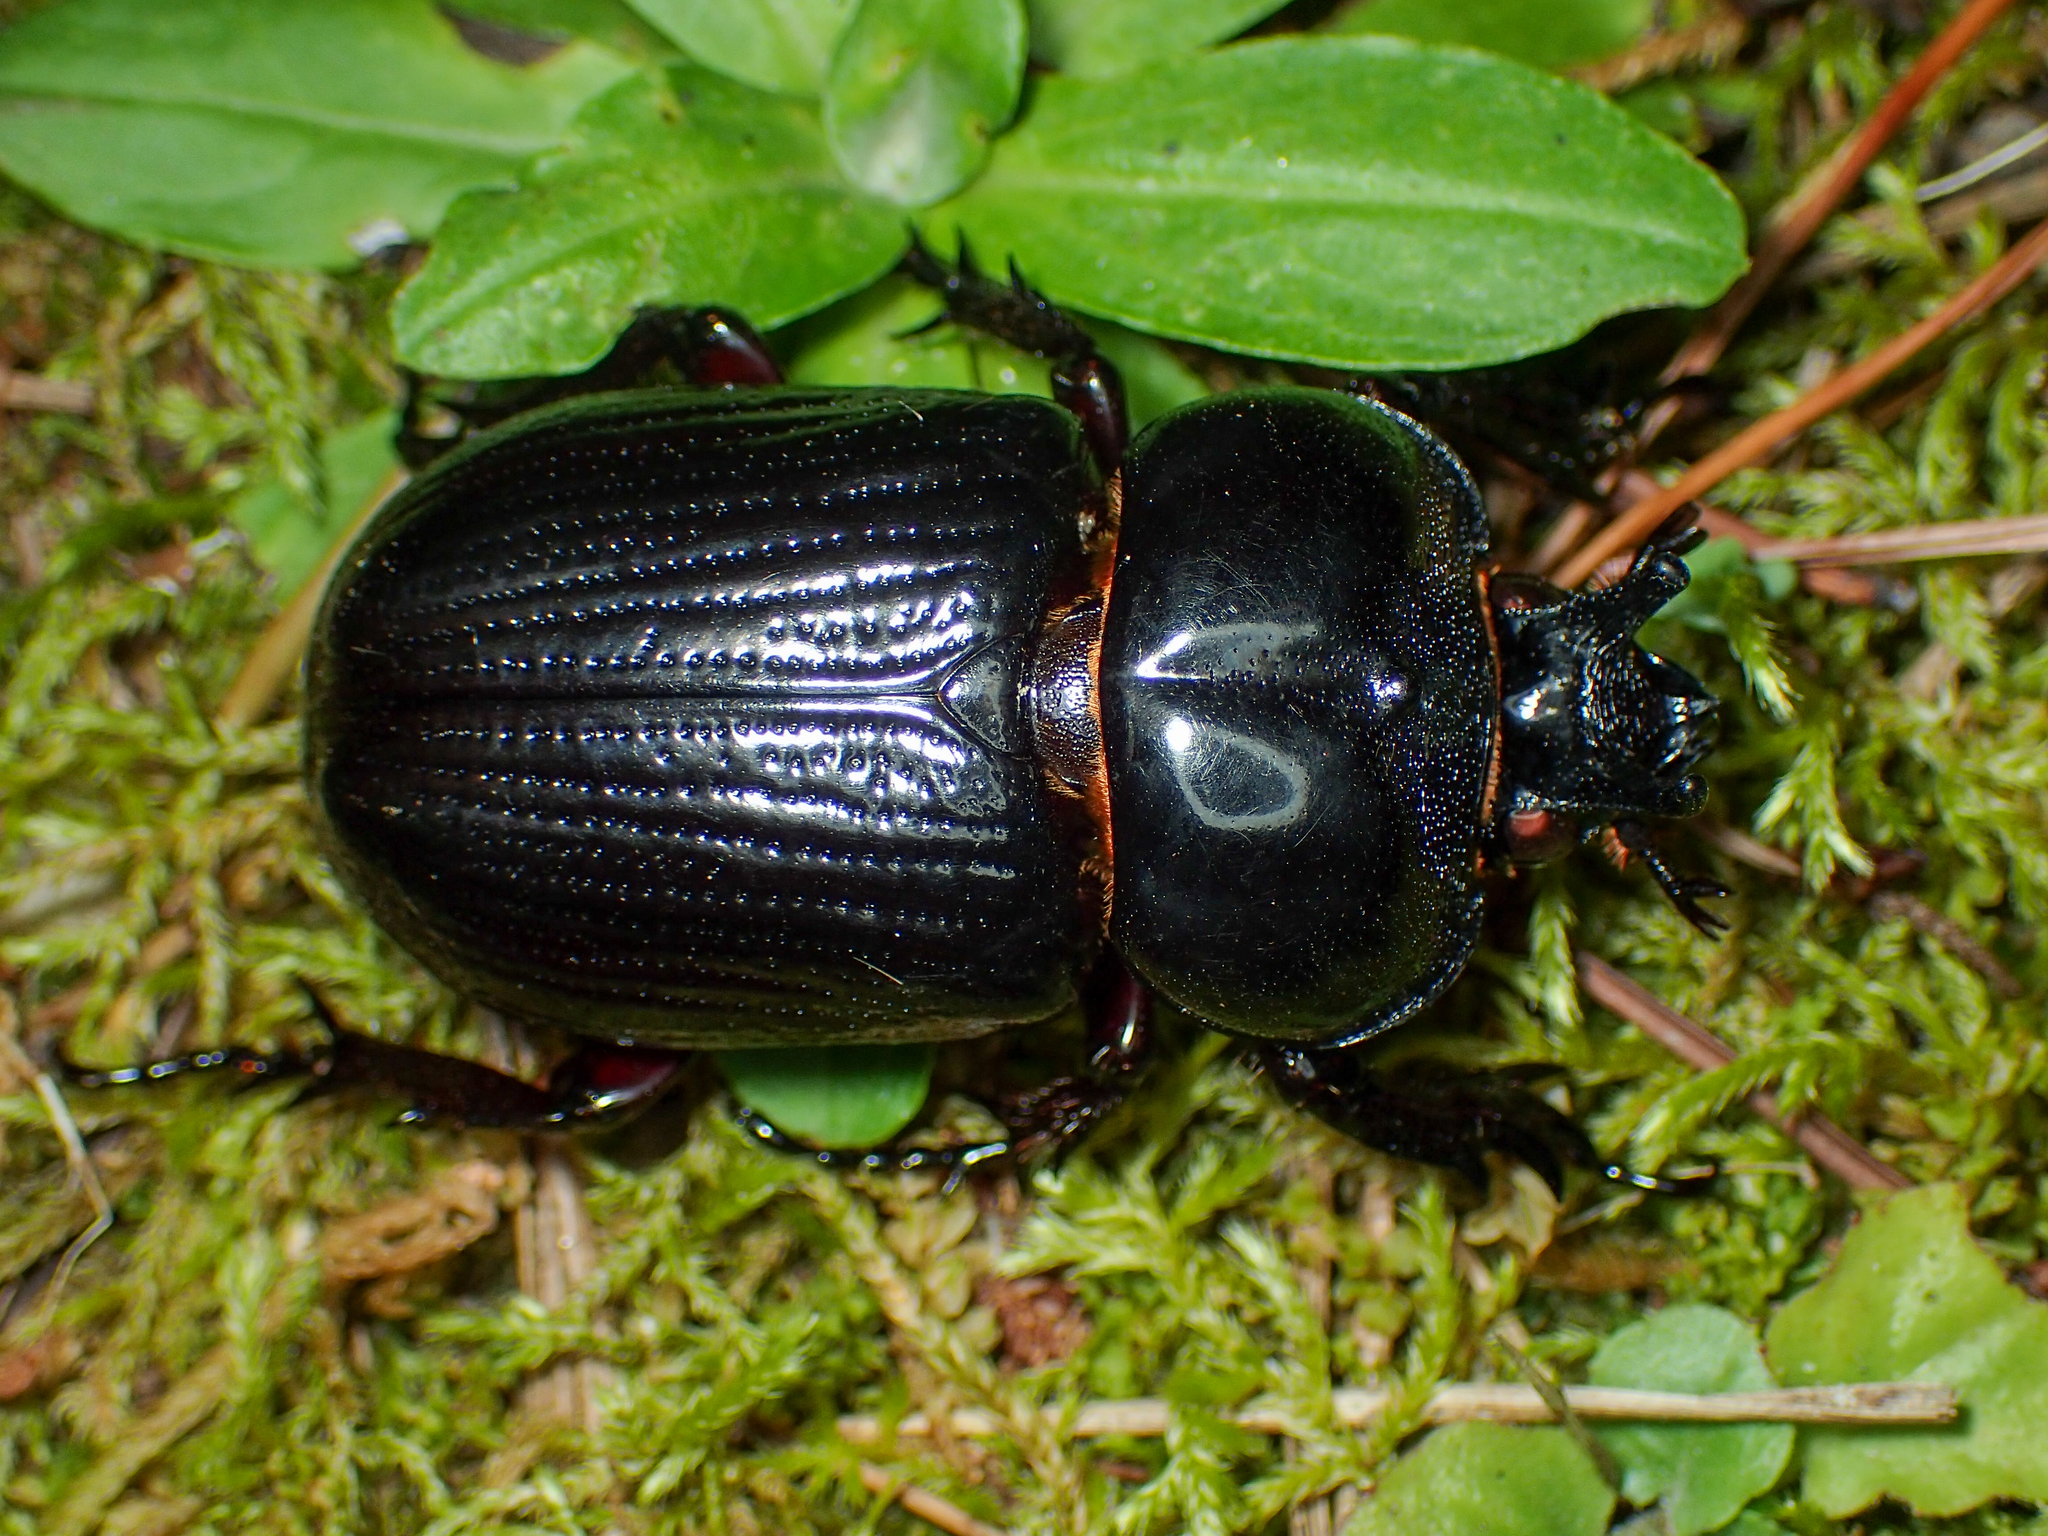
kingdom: Animalia
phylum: Arthropoda
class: Insecta
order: Coleoptera
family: Scarabaeidae
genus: Phileurus
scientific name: Phileurus truncatus
